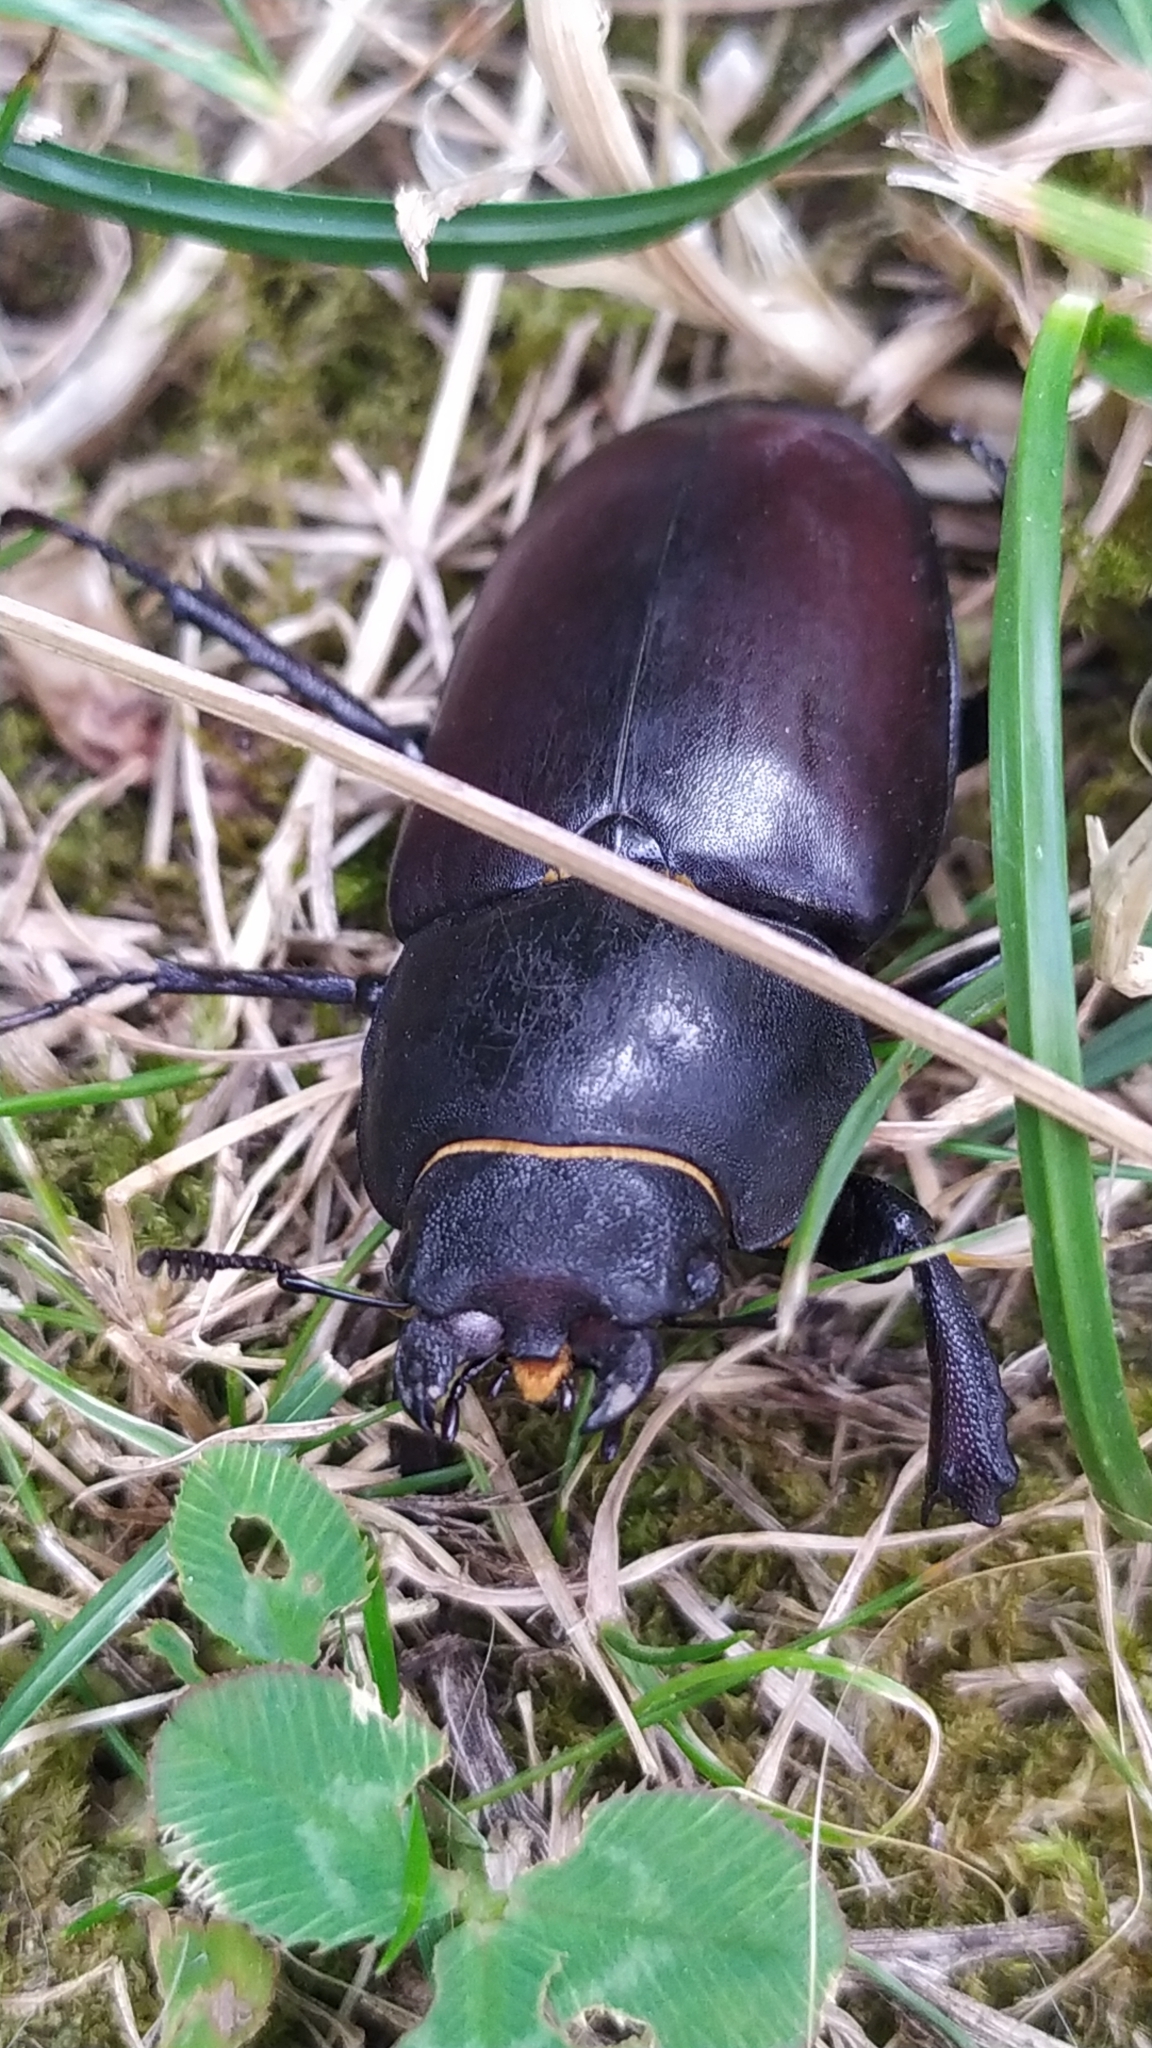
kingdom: Animalia
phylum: Arthropoda
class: Insecta
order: Coleoptera
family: Lucanidae
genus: Lucanus
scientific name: Lucanus cervus
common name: Stag beetle
